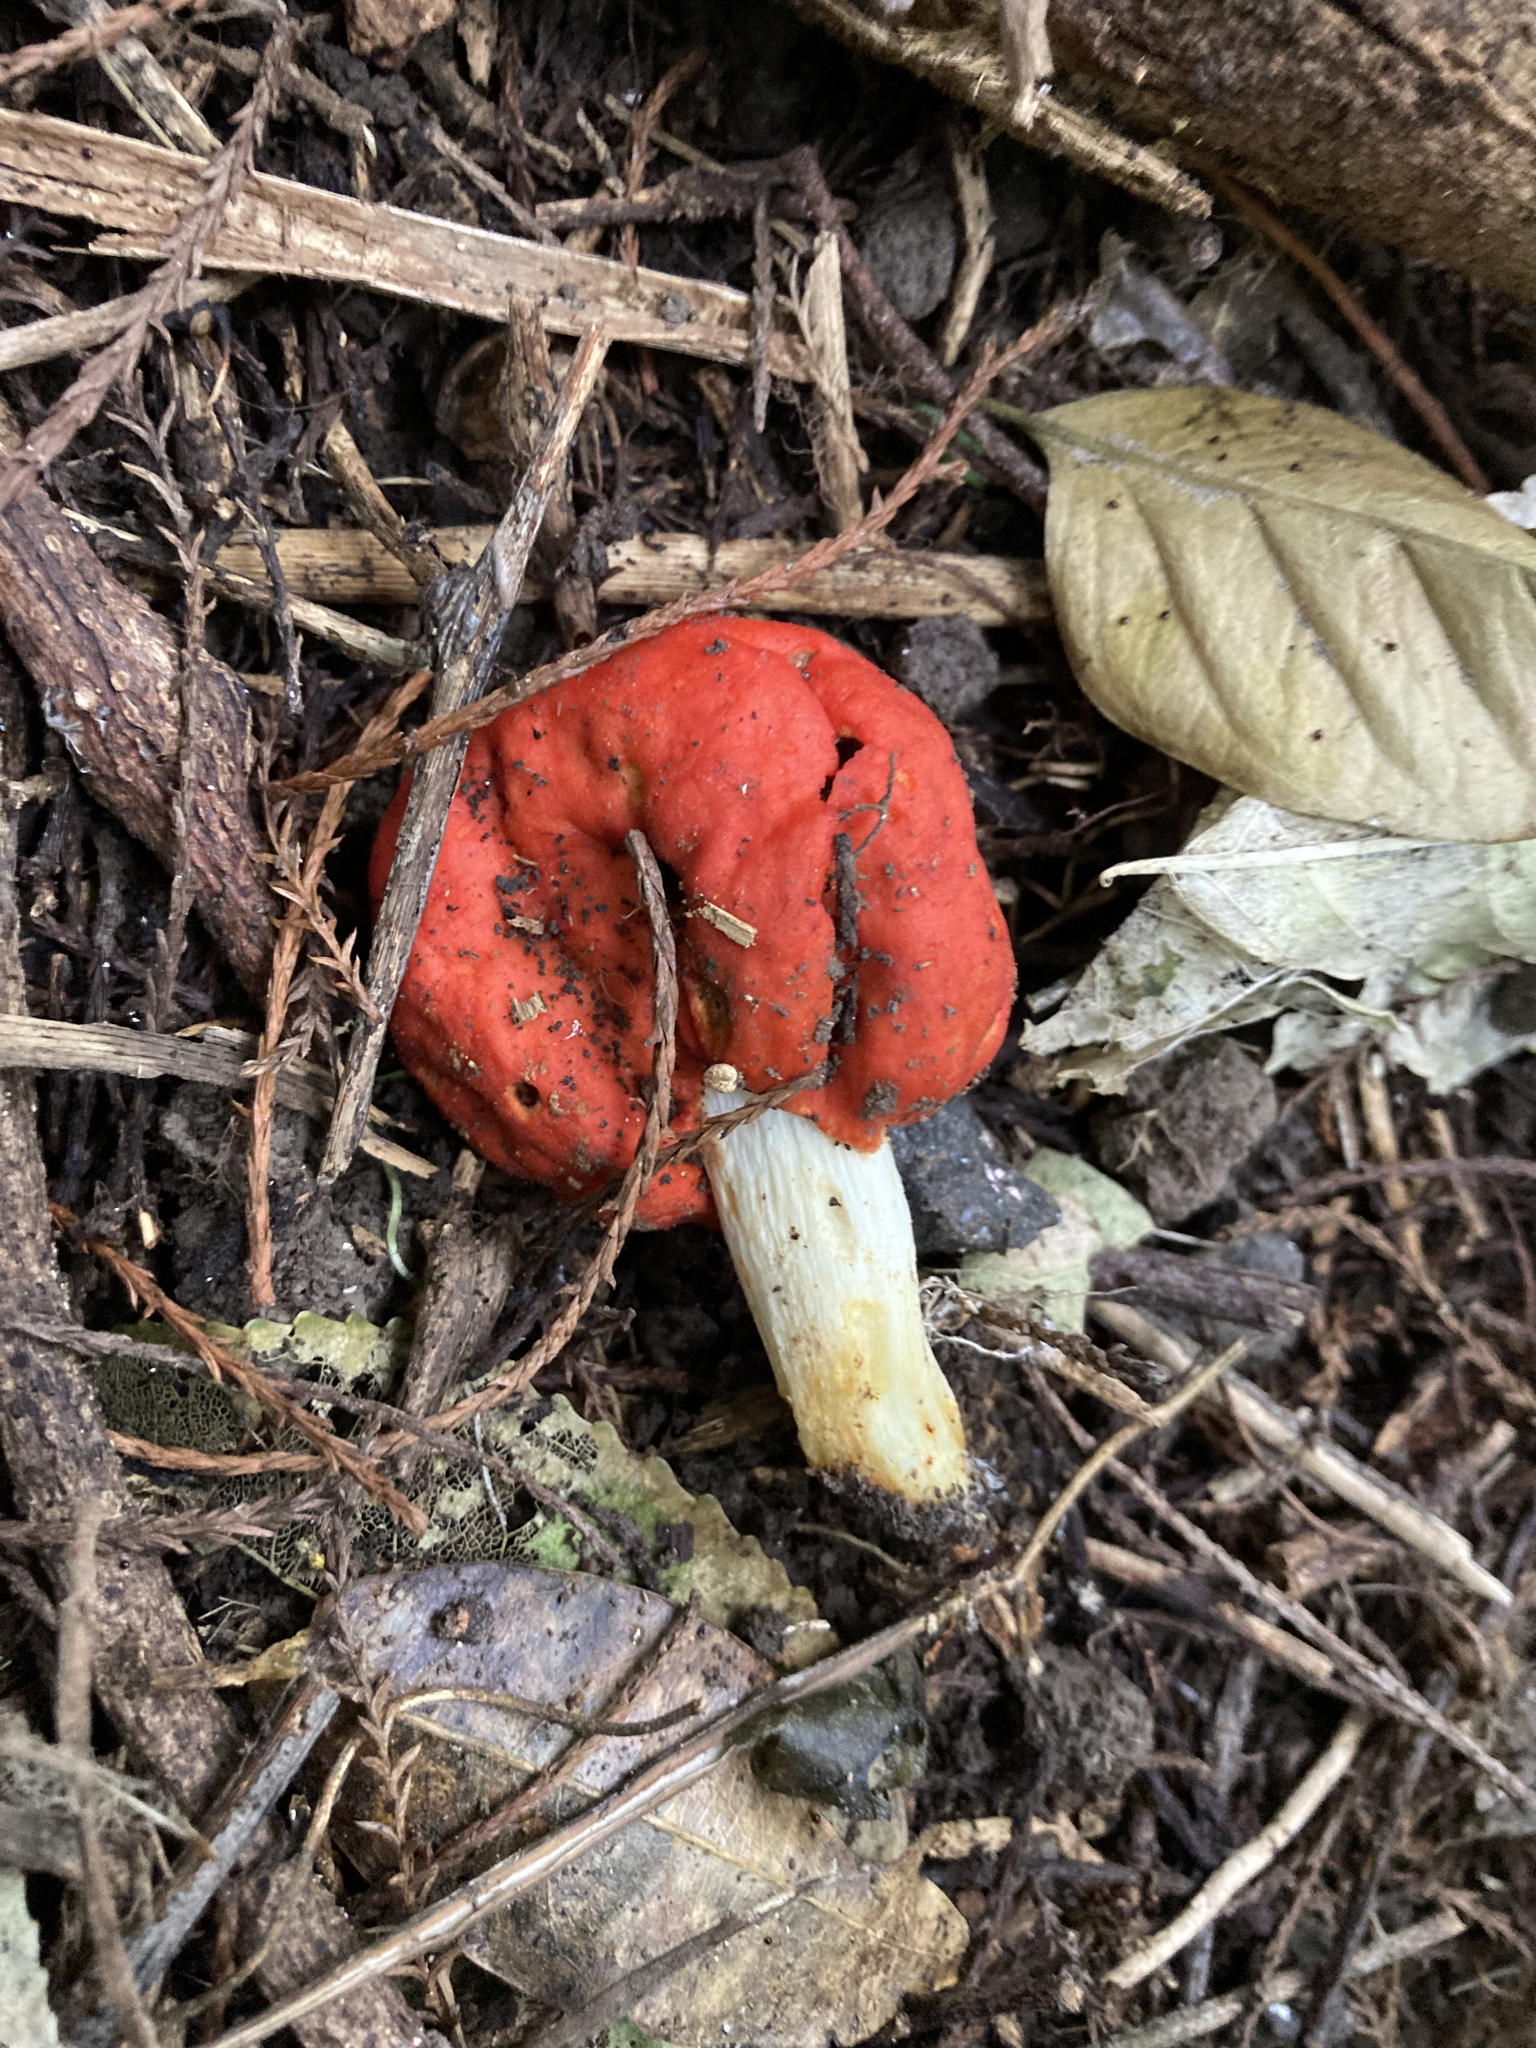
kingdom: Fungi
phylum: Basidiomycota
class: Agaricomycetes
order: Agaricales
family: Strophariaceae
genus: Leratiomyces
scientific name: Leratiomyces erythrocephalus
